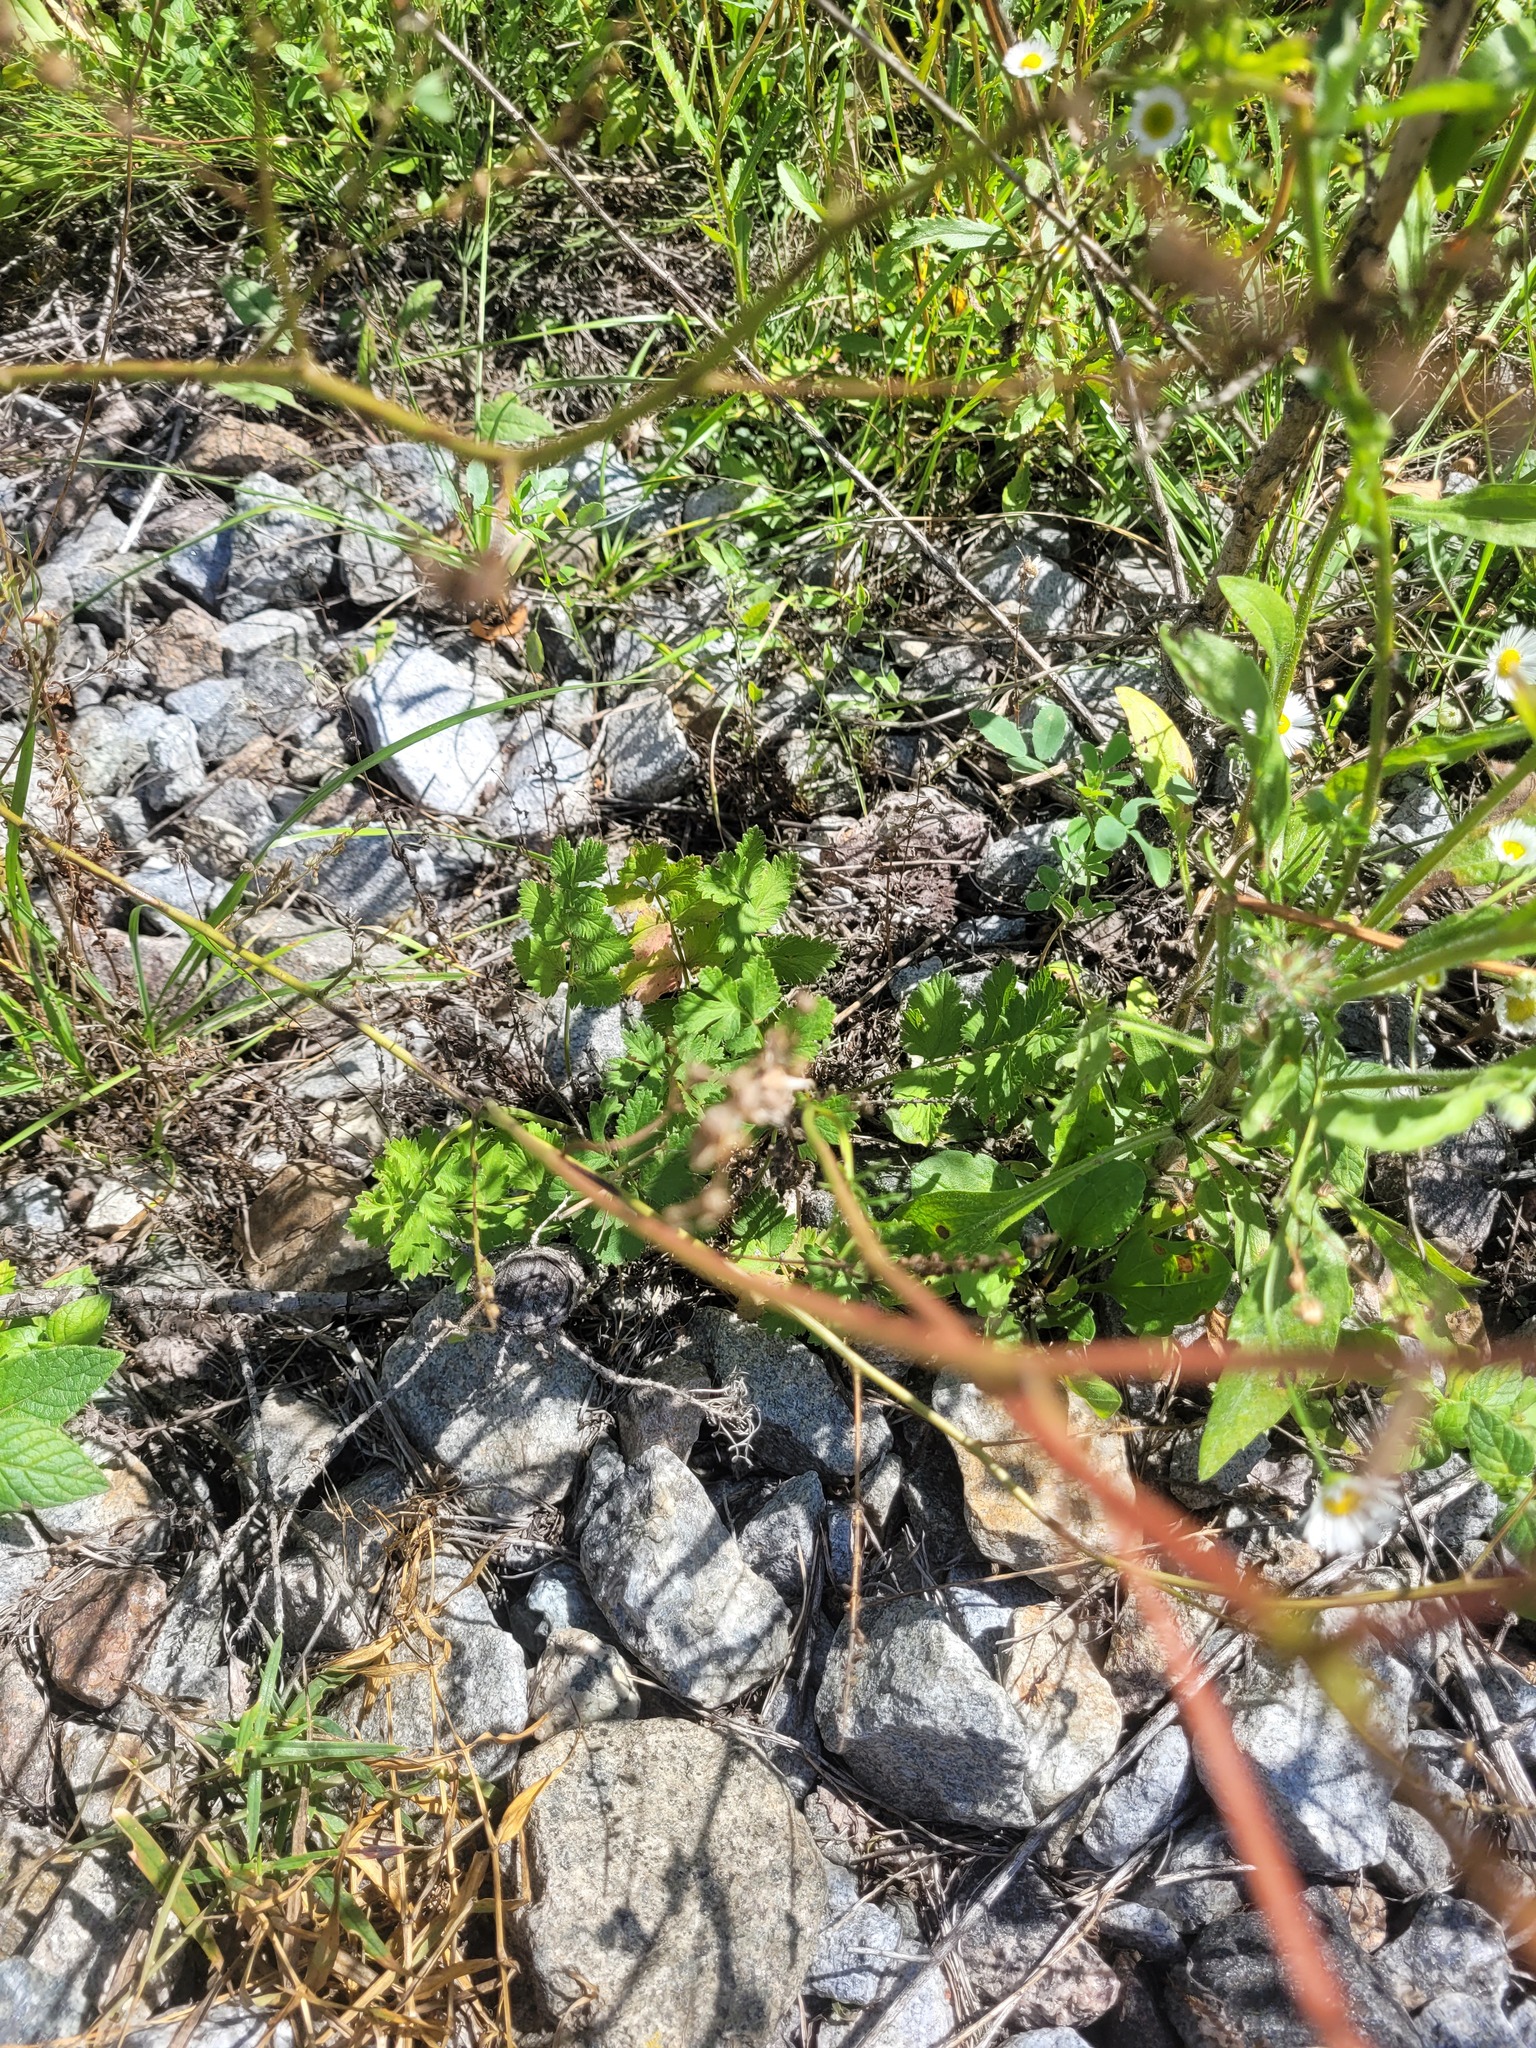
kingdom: Plantae
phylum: Tracheophyta
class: Magnoliopsida
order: Apiales
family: Apiaceae
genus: Pimpinella
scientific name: Pimpinella saxifraga
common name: Burnet-saxifrage
